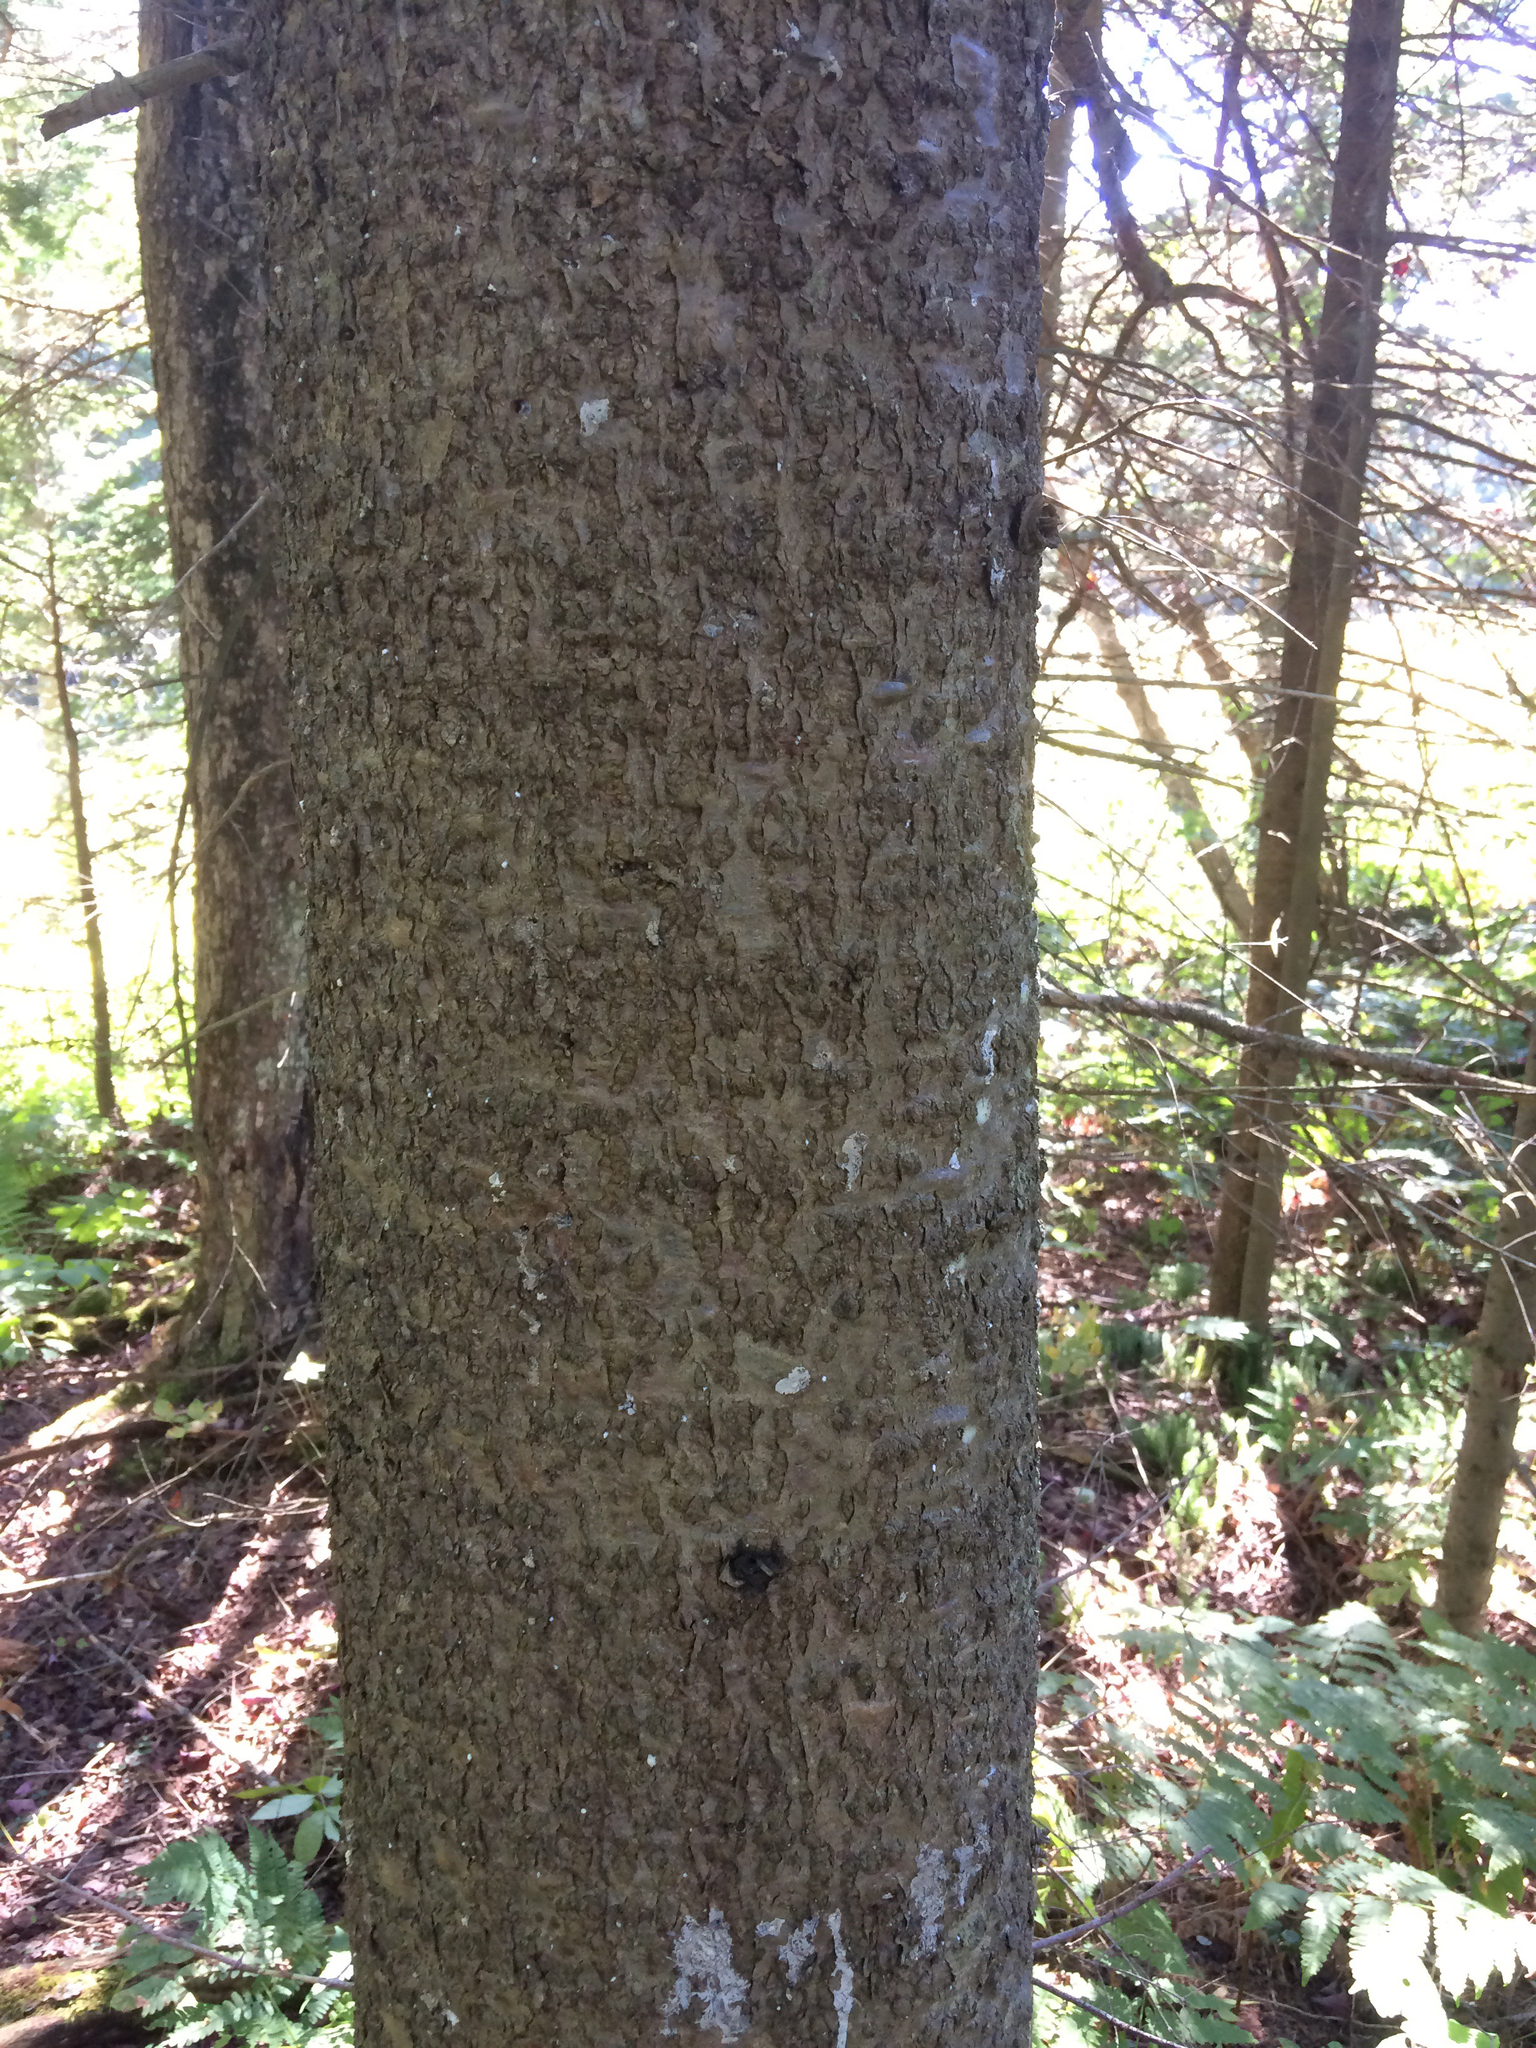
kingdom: Plantae
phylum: Tracheophyta
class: Pinopsida
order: Pinales
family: Pinaceae
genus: Abies
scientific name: Abies balsamea
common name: Balsam fir
